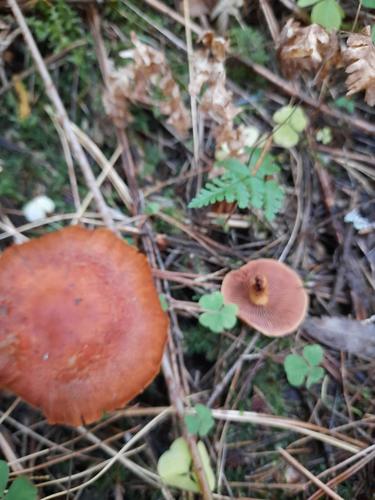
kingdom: Fungi
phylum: Basidiomycota
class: Agaricomycetes
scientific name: Agaricomycetes
